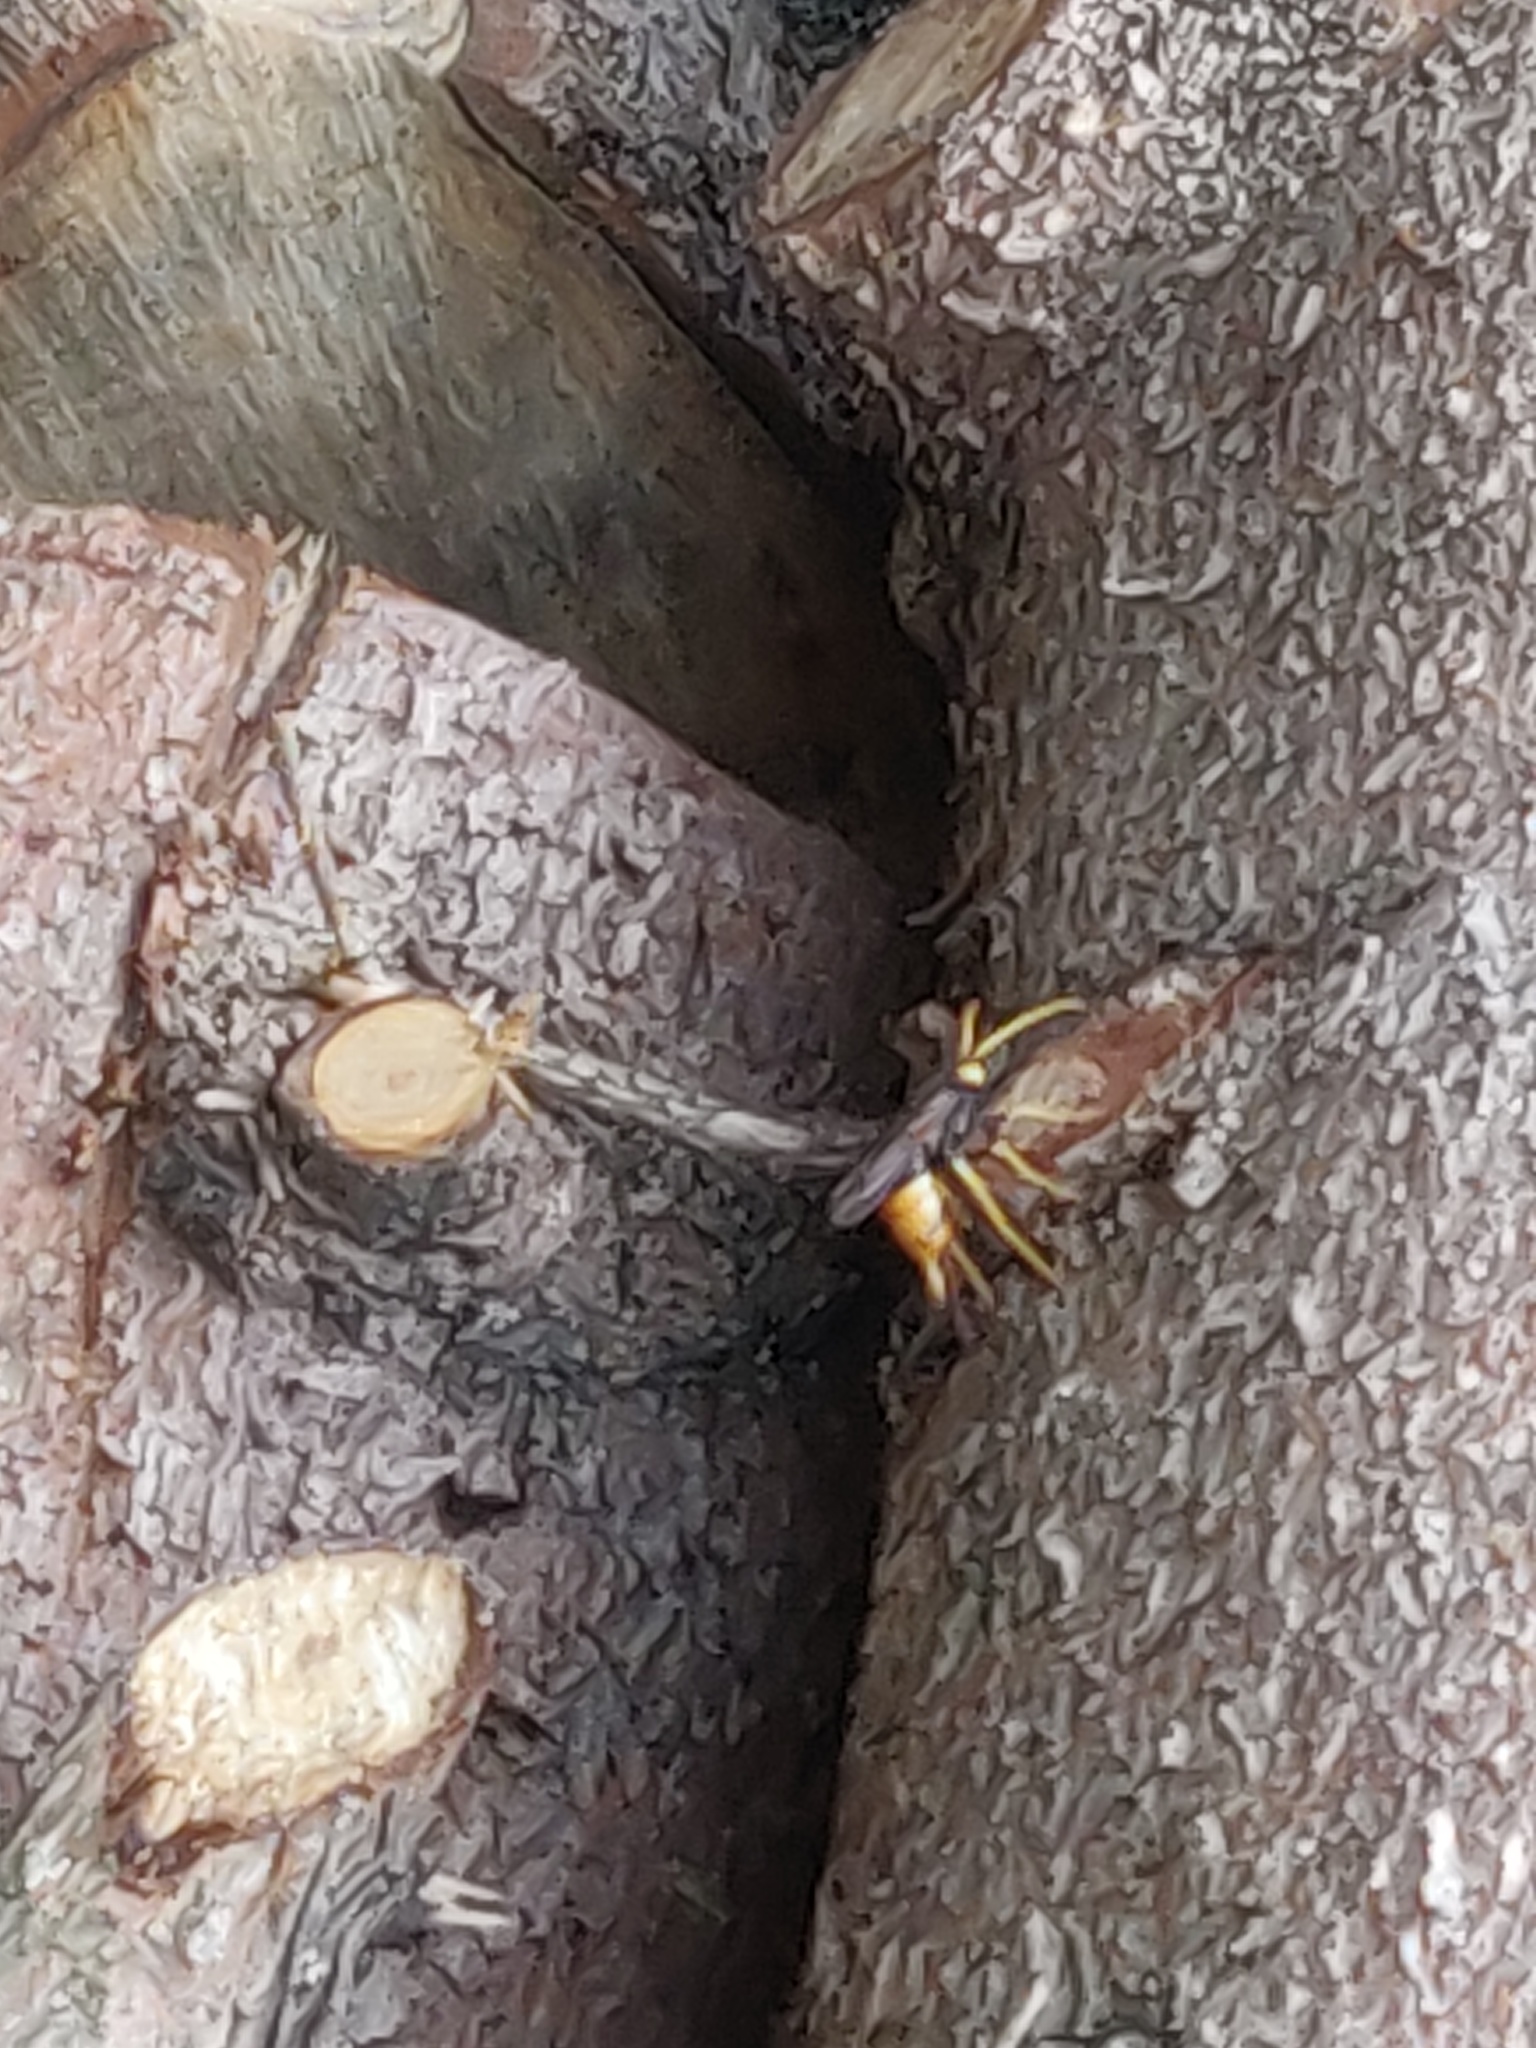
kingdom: Animalia
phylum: Arthropoda
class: Insecta
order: Hymenoptera
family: Siricidae
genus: Urocerus
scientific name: Urocerus gigas
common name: Giant woodwasp
